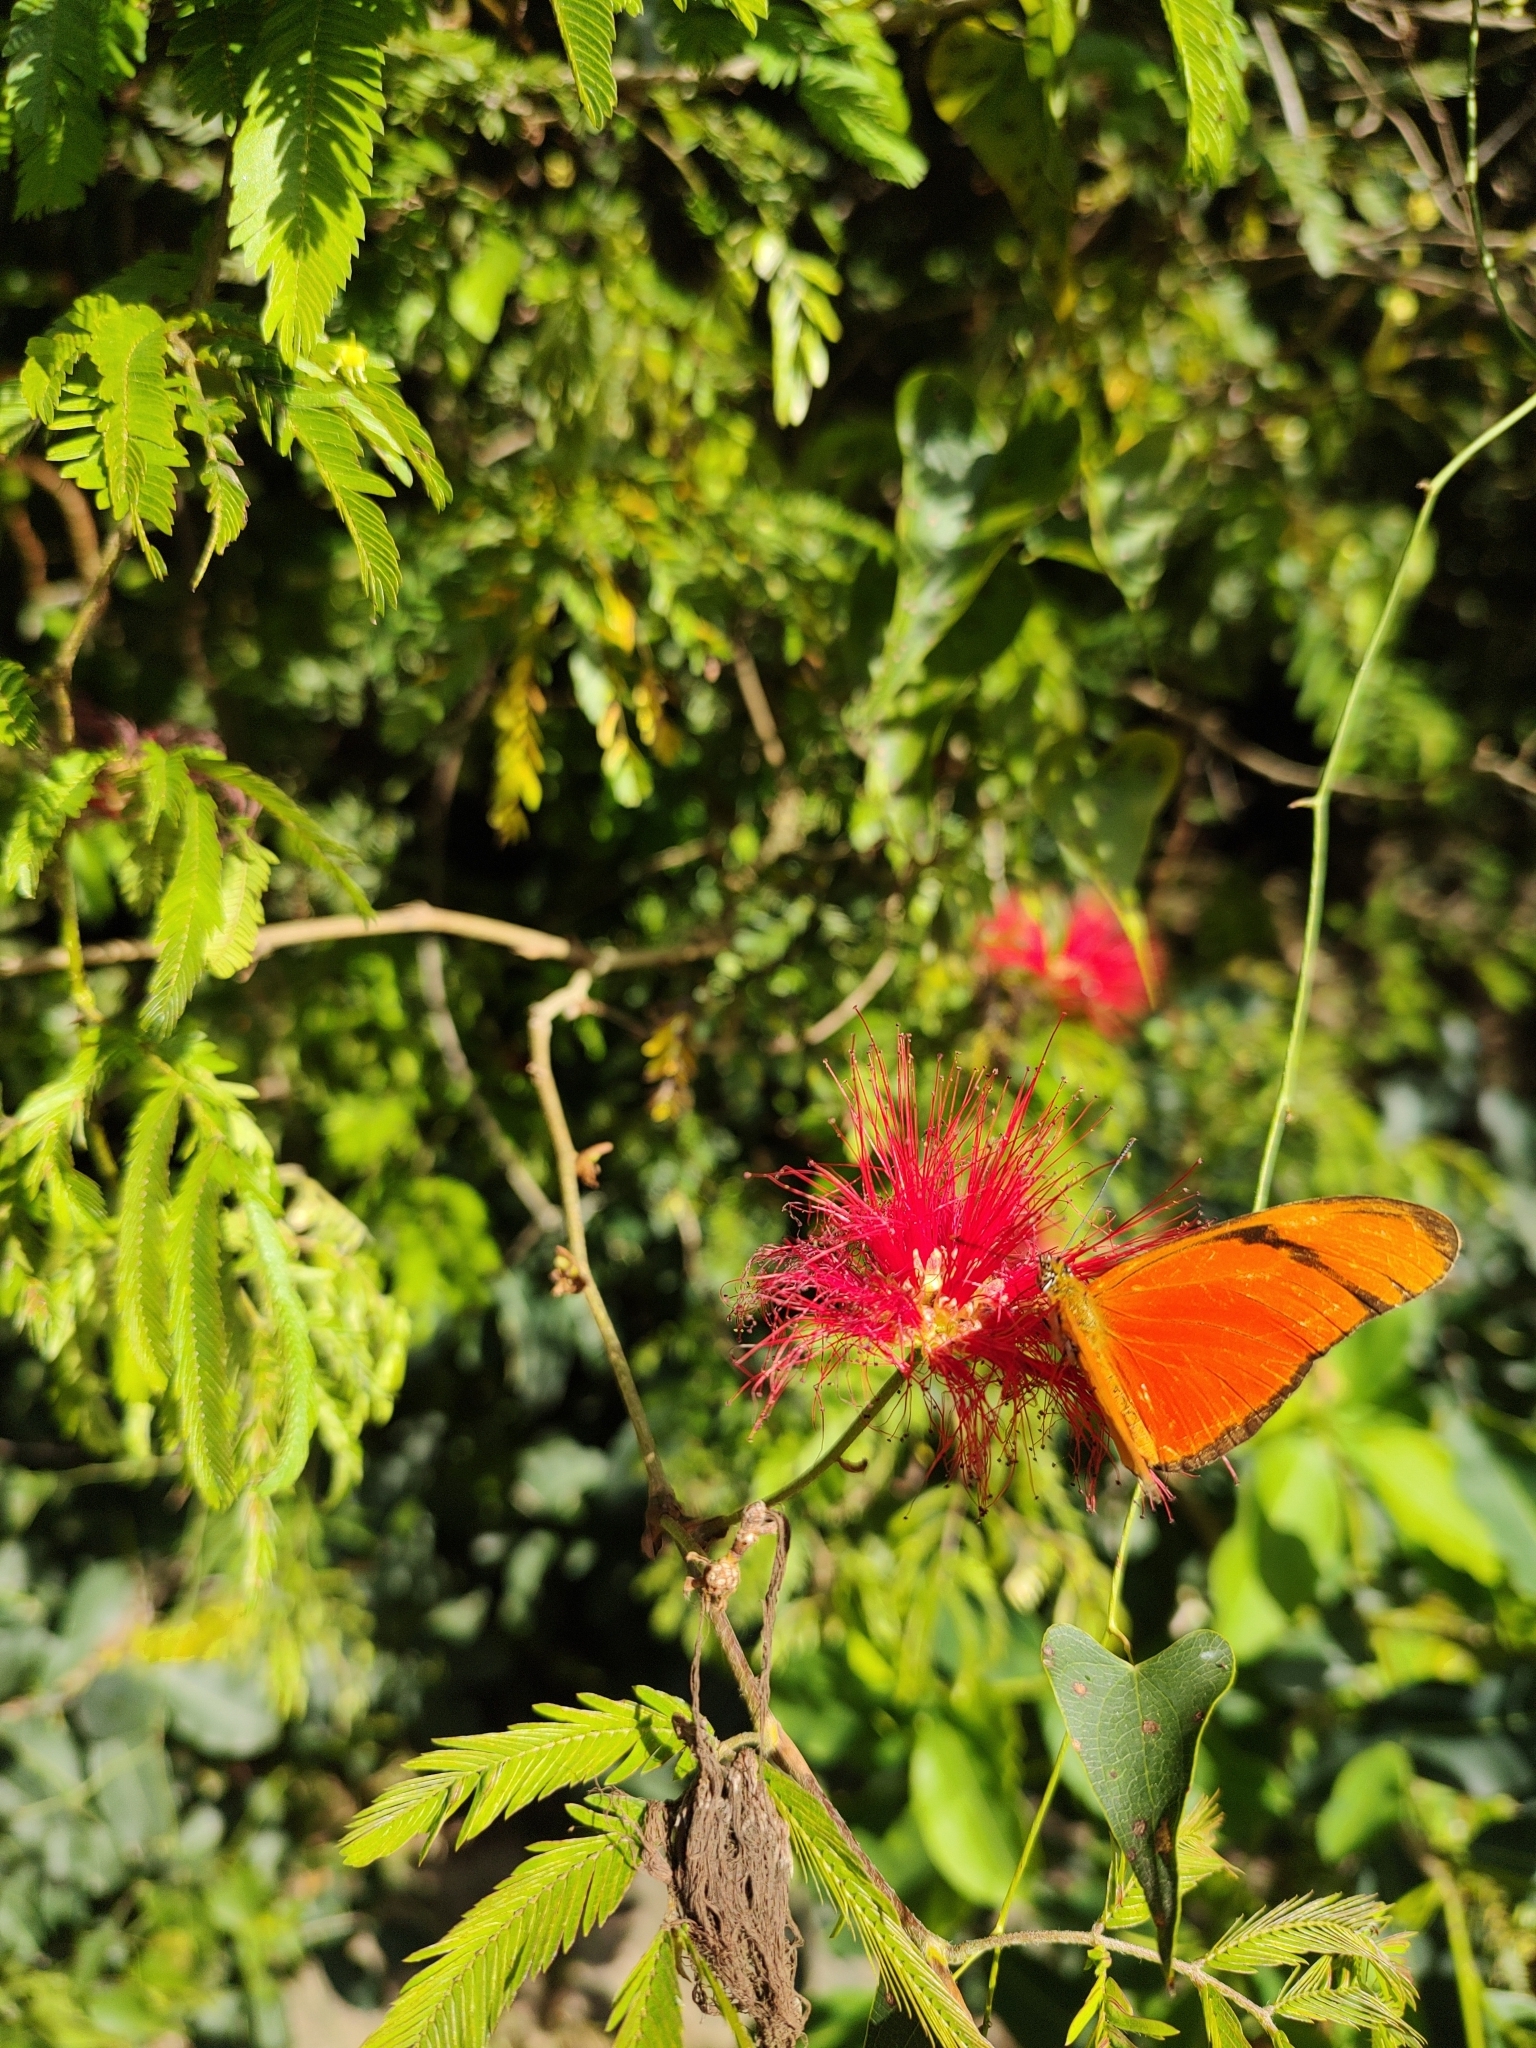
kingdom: Animalia
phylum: Arthropoda
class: Insecta
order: Lepidoptera
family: Nymphalidae
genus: Dryas
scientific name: Dryas iulia
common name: Flambeau
